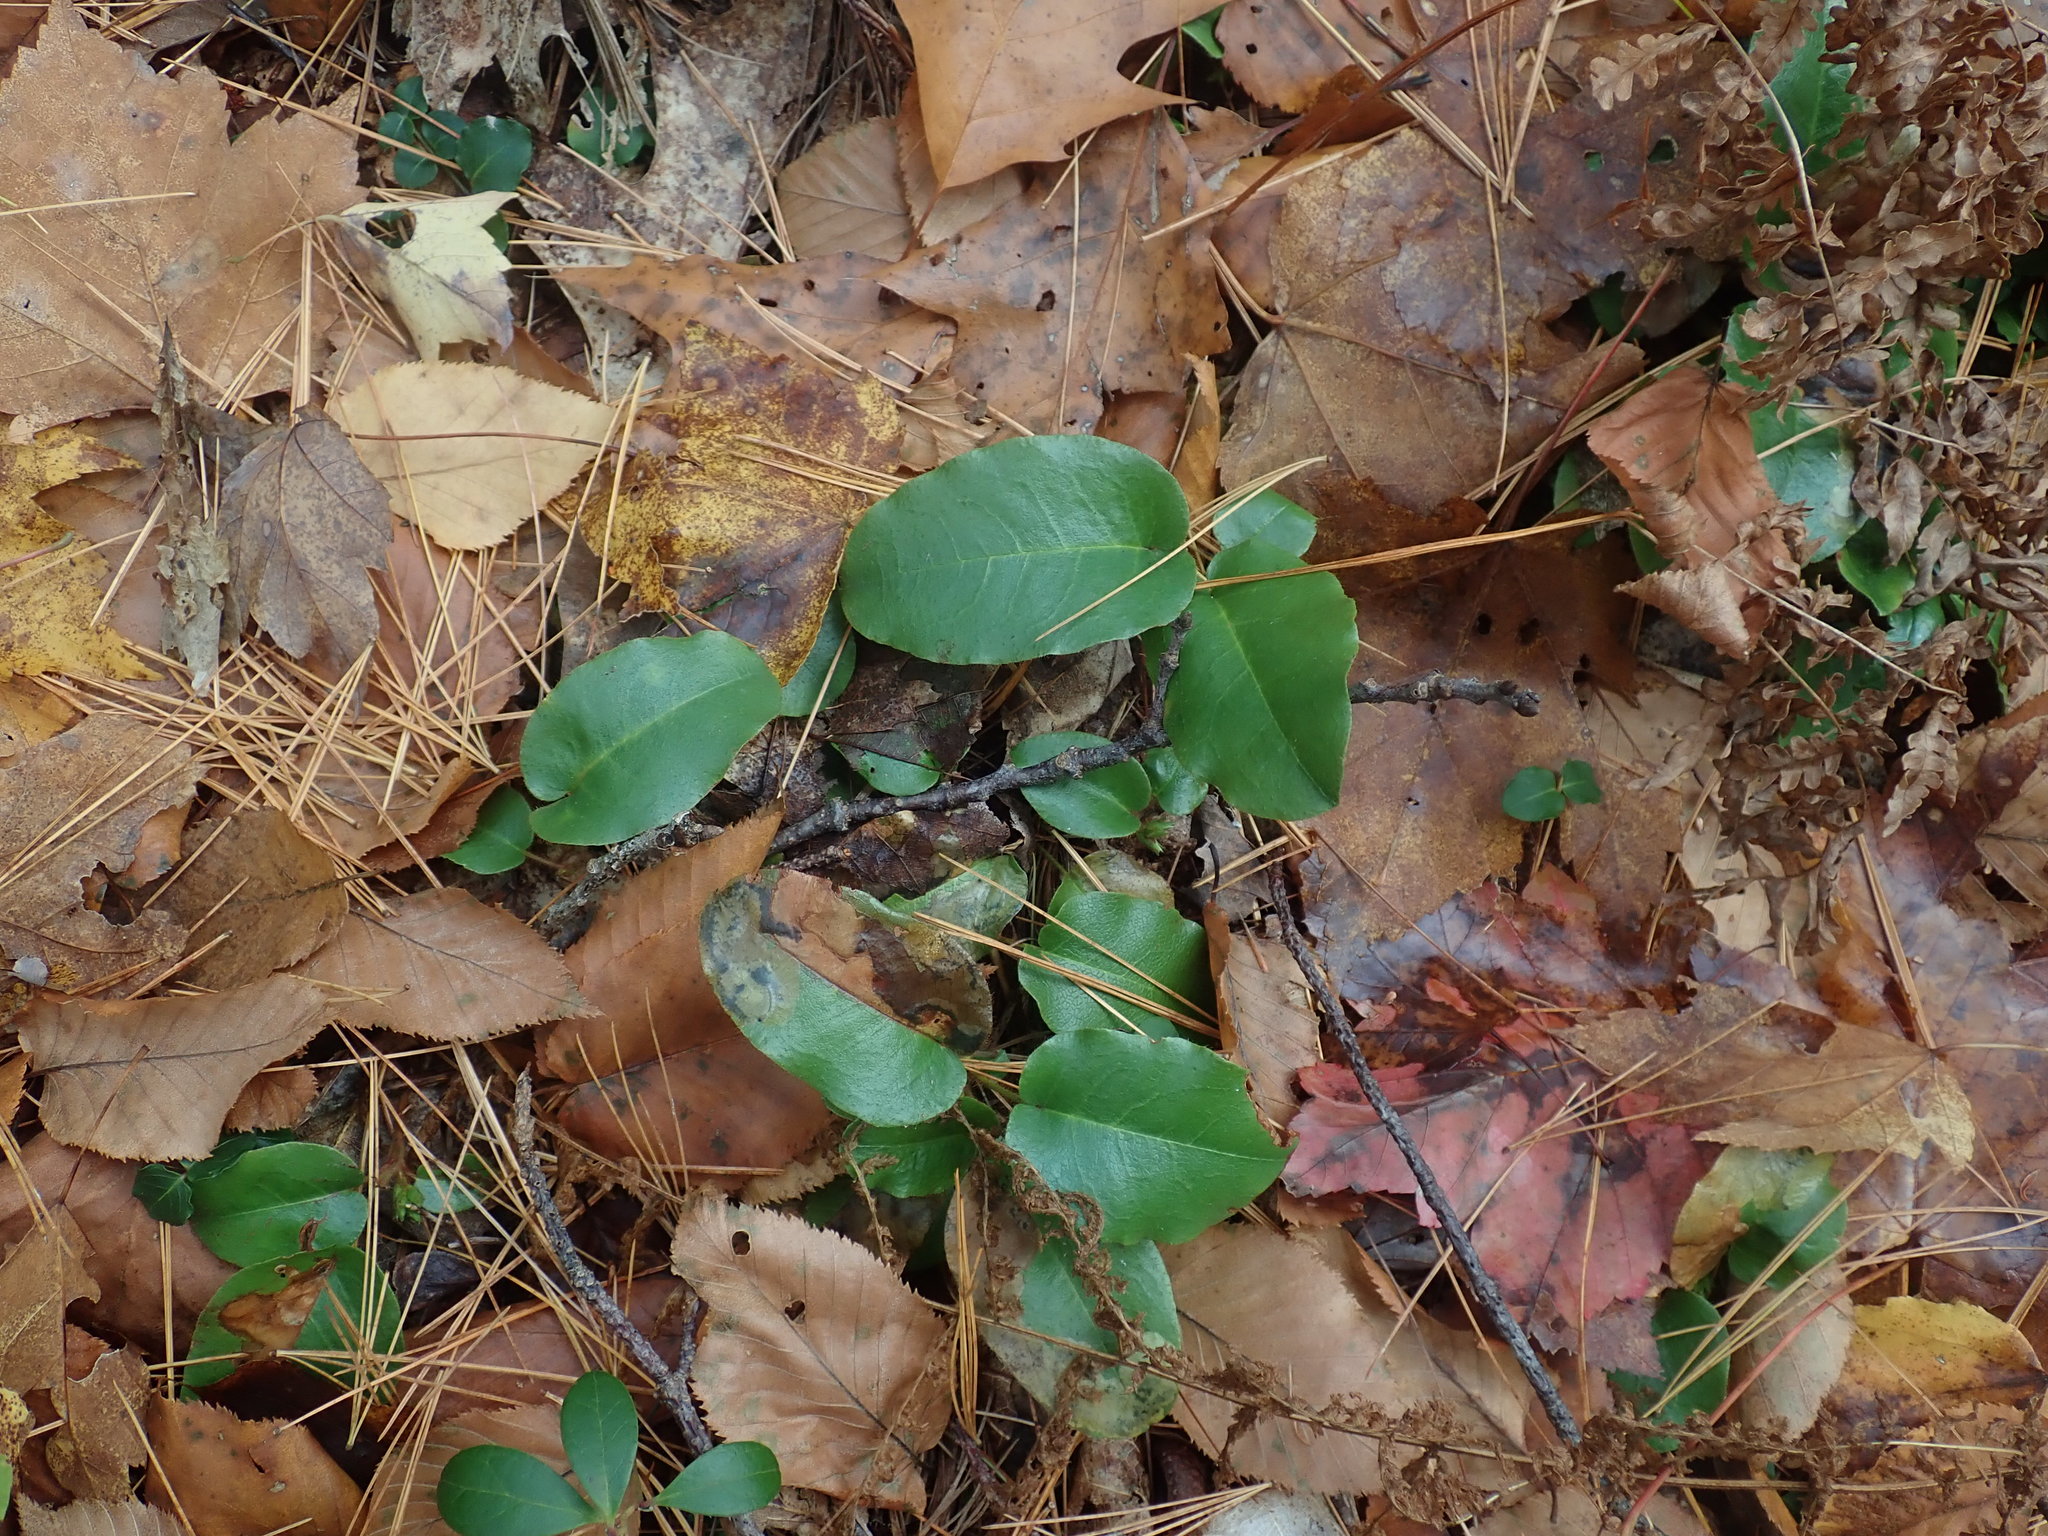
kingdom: Plantae
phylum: Tracheophyta
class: Magnoliopsida
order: Ericales
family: Ericaceae
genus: Epigaea
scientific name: Epigaea repens
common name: Gravelroot
